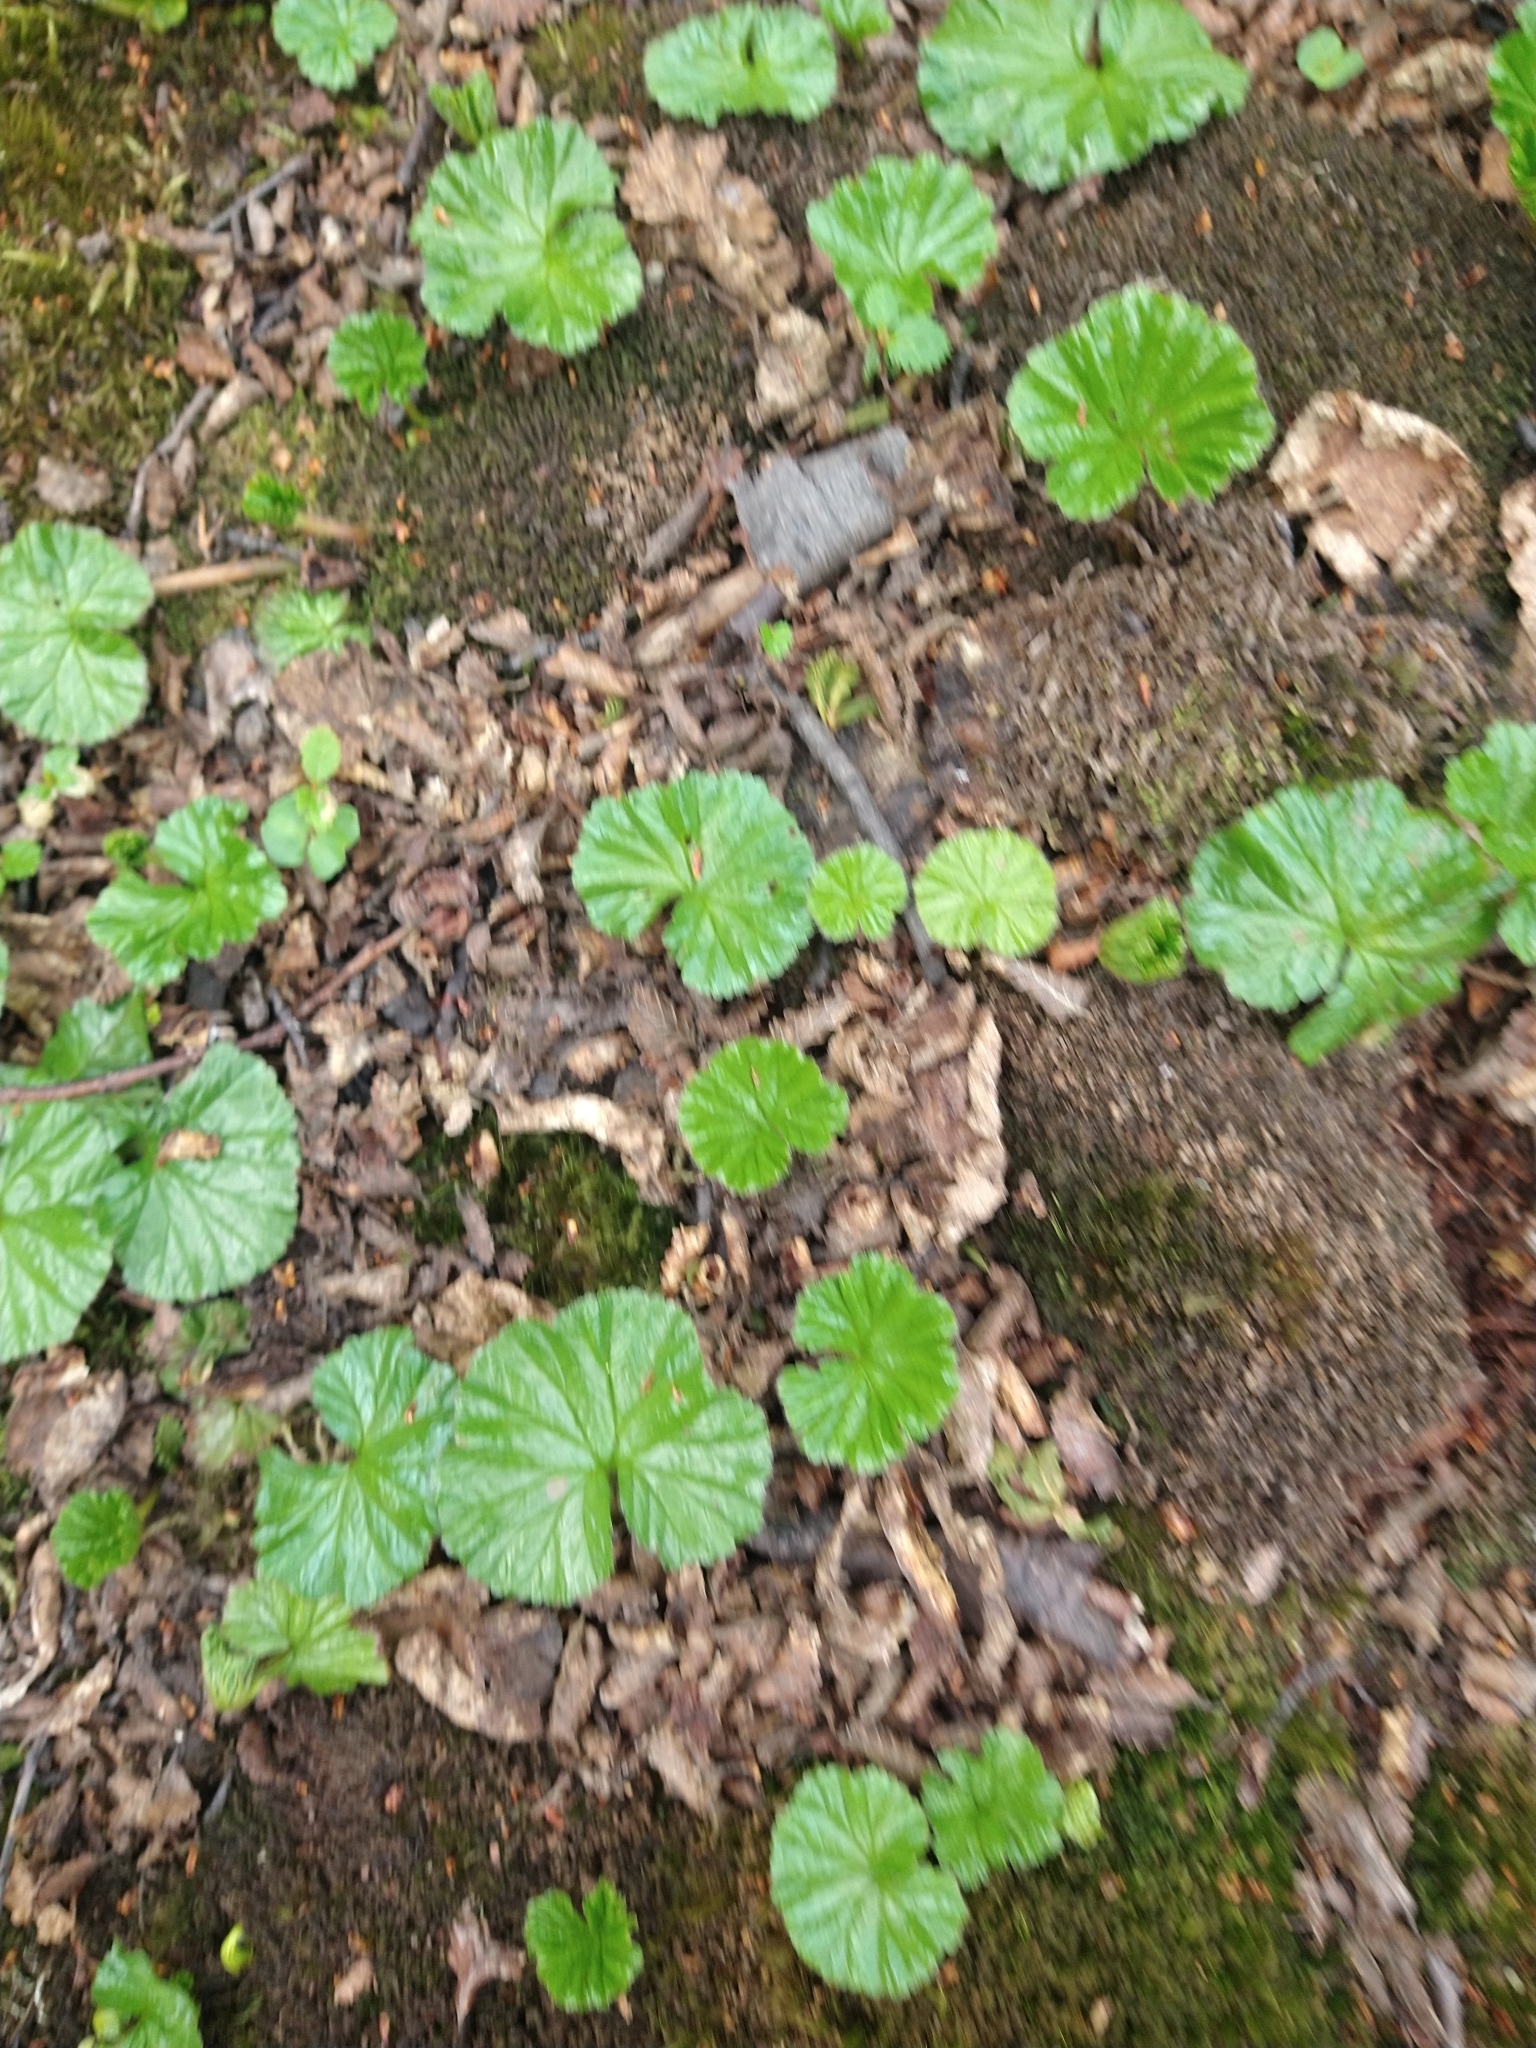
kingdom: Plantae
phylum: Tracheophyta
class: Magnoliopsida
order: Gunnerales
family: Gunneraceae
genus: Gunnera
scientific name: Gunnera magellanica
